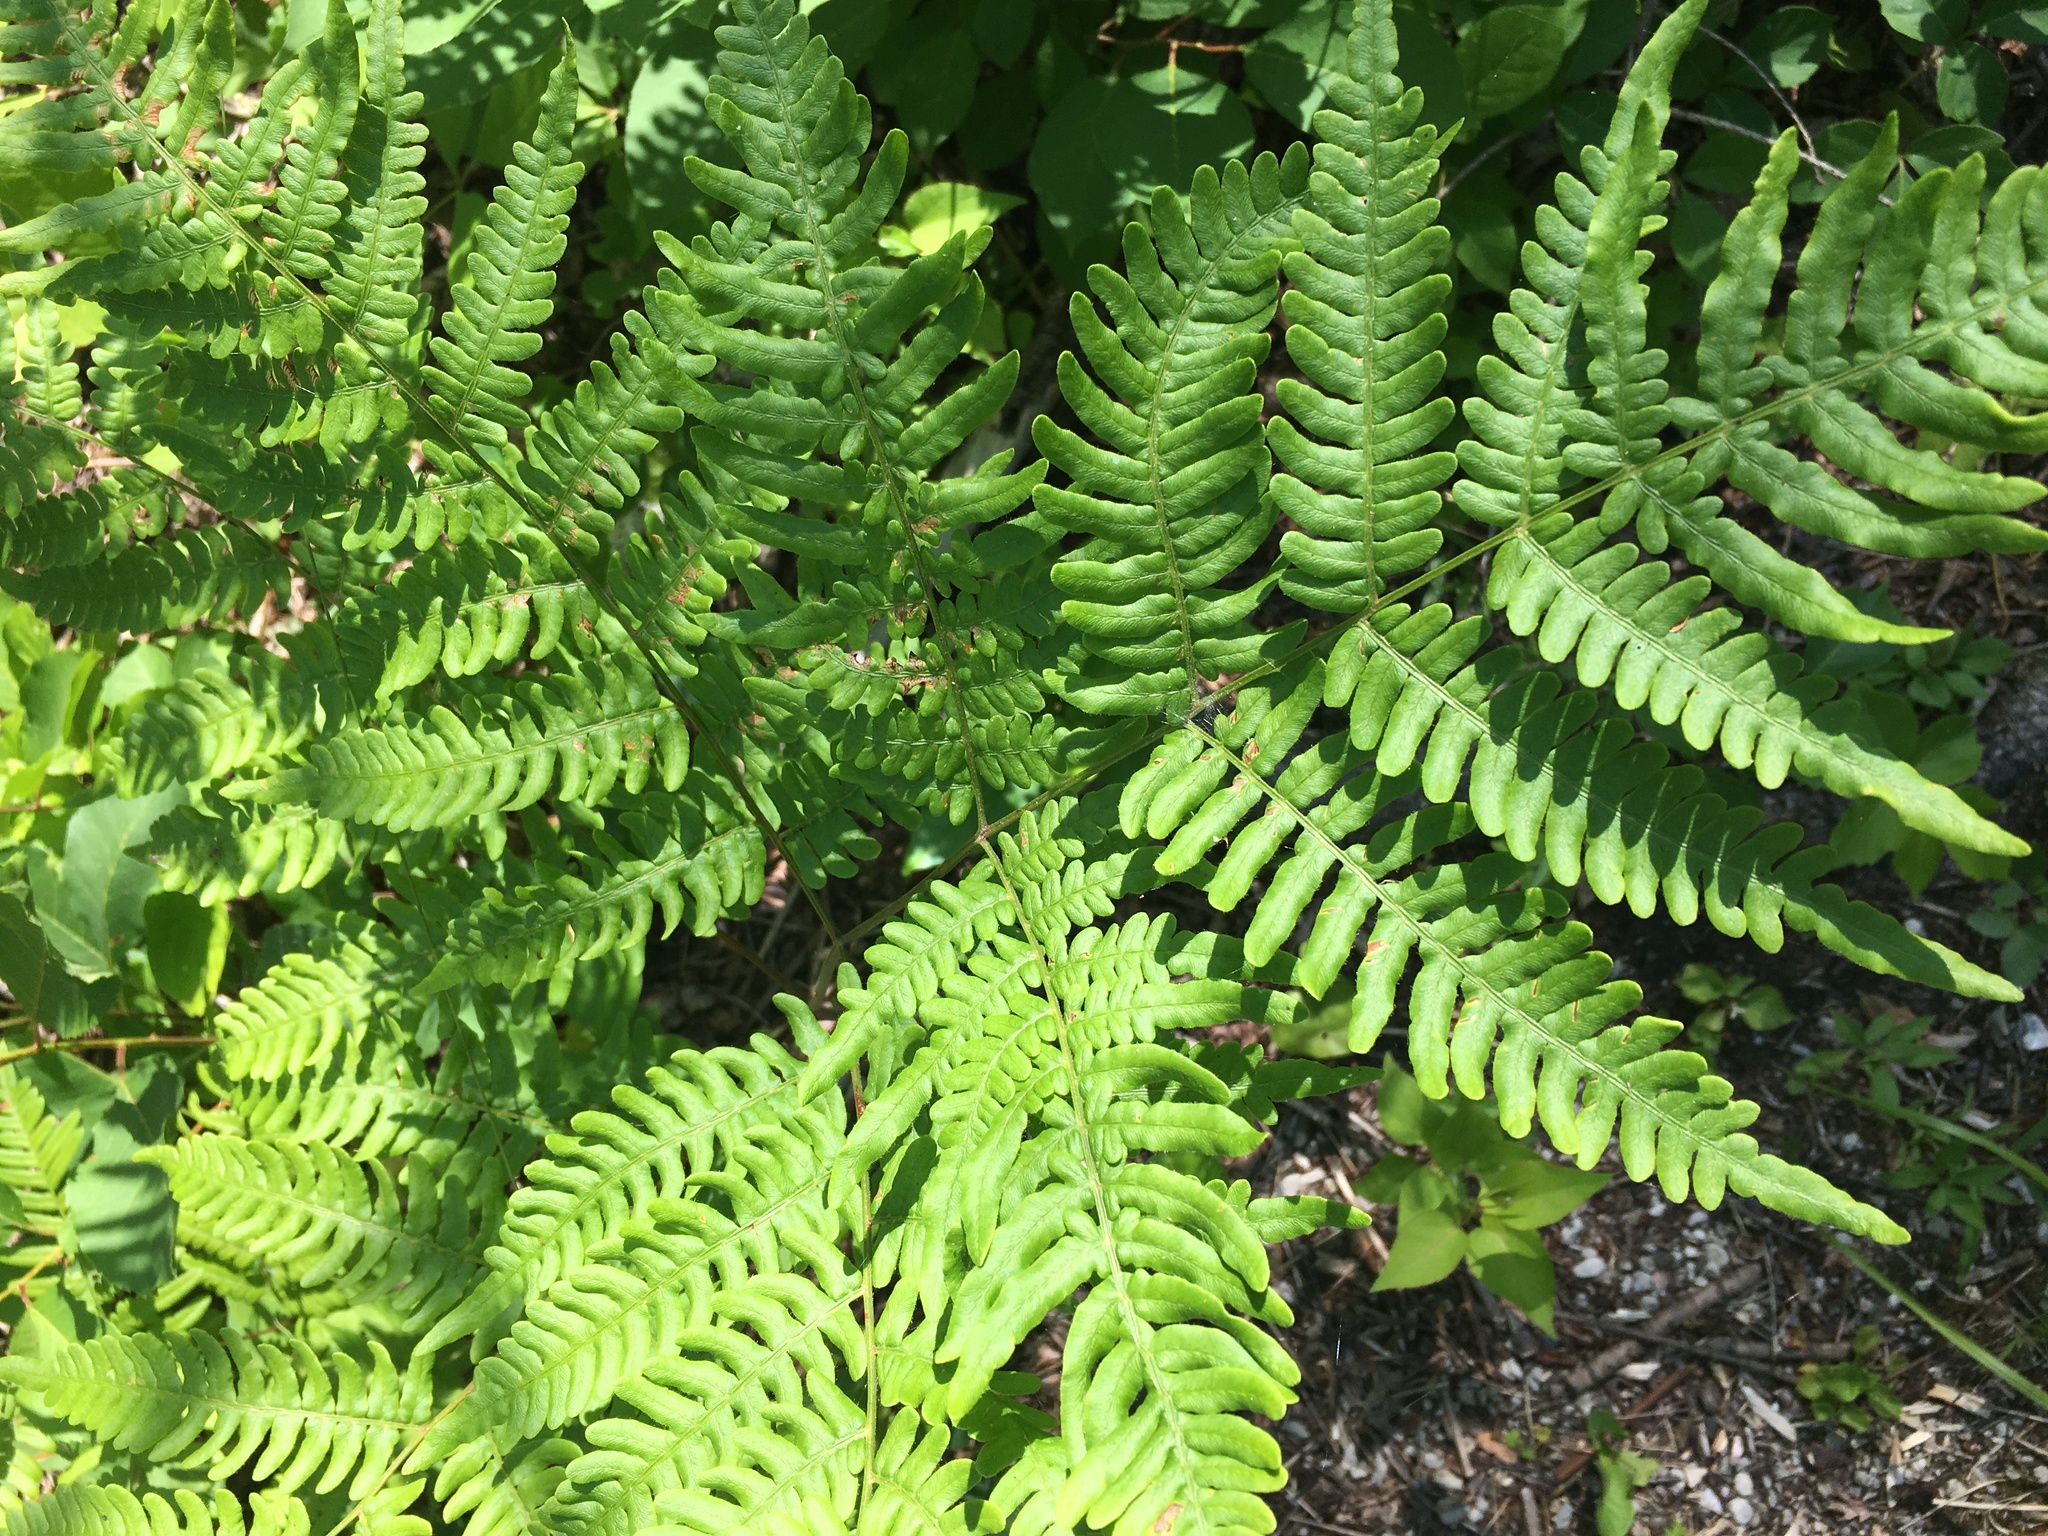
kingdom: Plantae
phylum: Tracheophyta
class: Polypodiopsida
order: Polypodiales
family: Dennstaedtiaceae
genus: Pteridium
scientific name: Pteridium aquilinum
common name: Bracken
